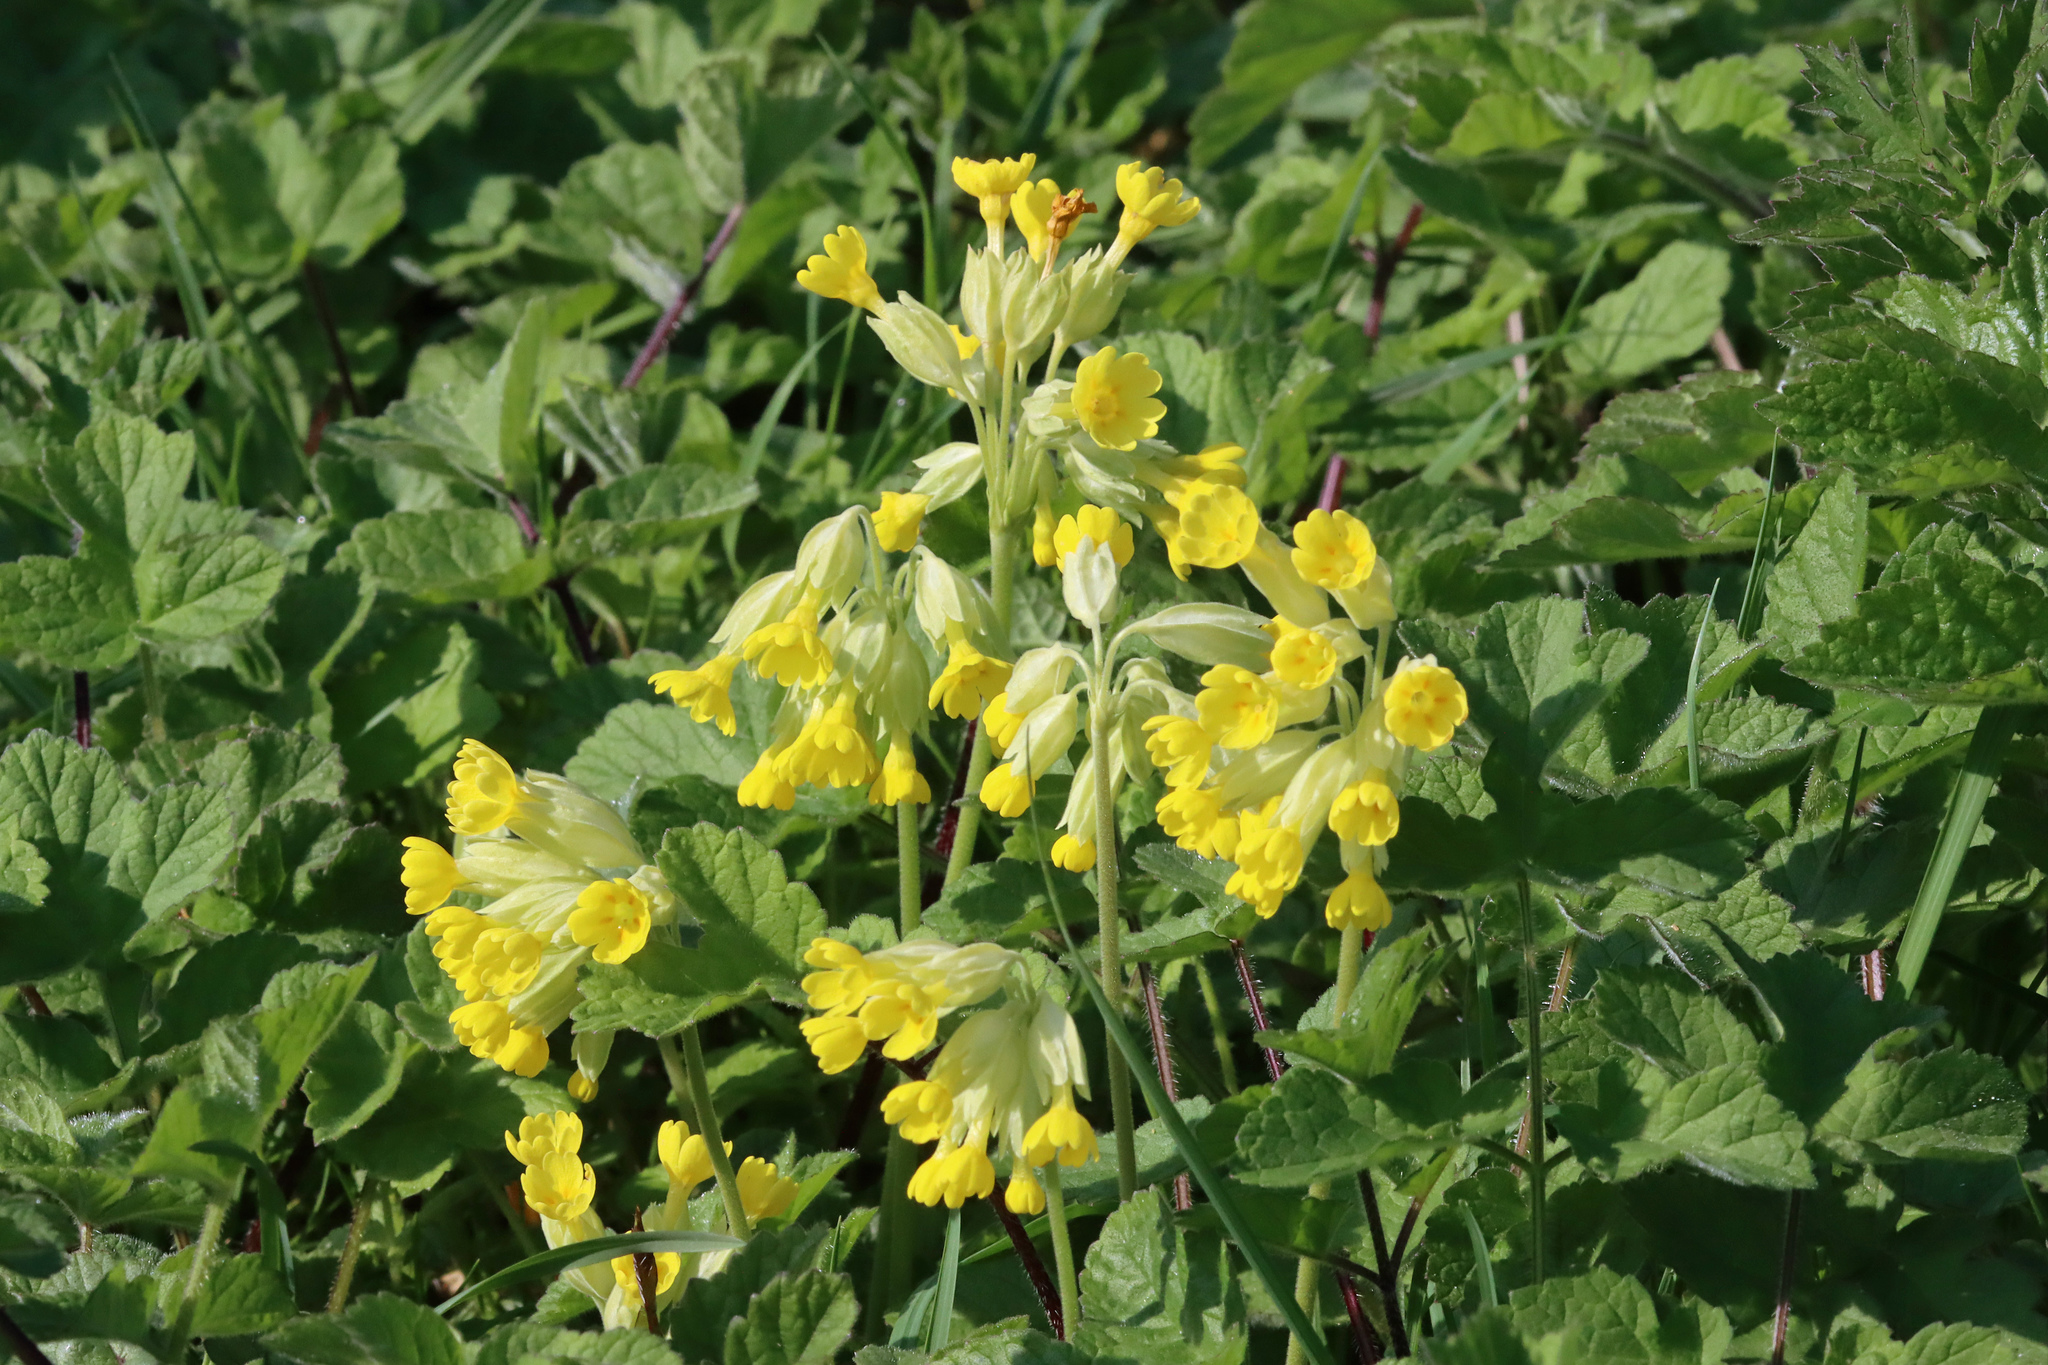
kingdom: Plantae
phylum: Tracheophyta
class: Magnoliopsida
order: Ericales
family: Primulaceae
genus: Primula
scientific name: Primula veris
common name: Cowslip
